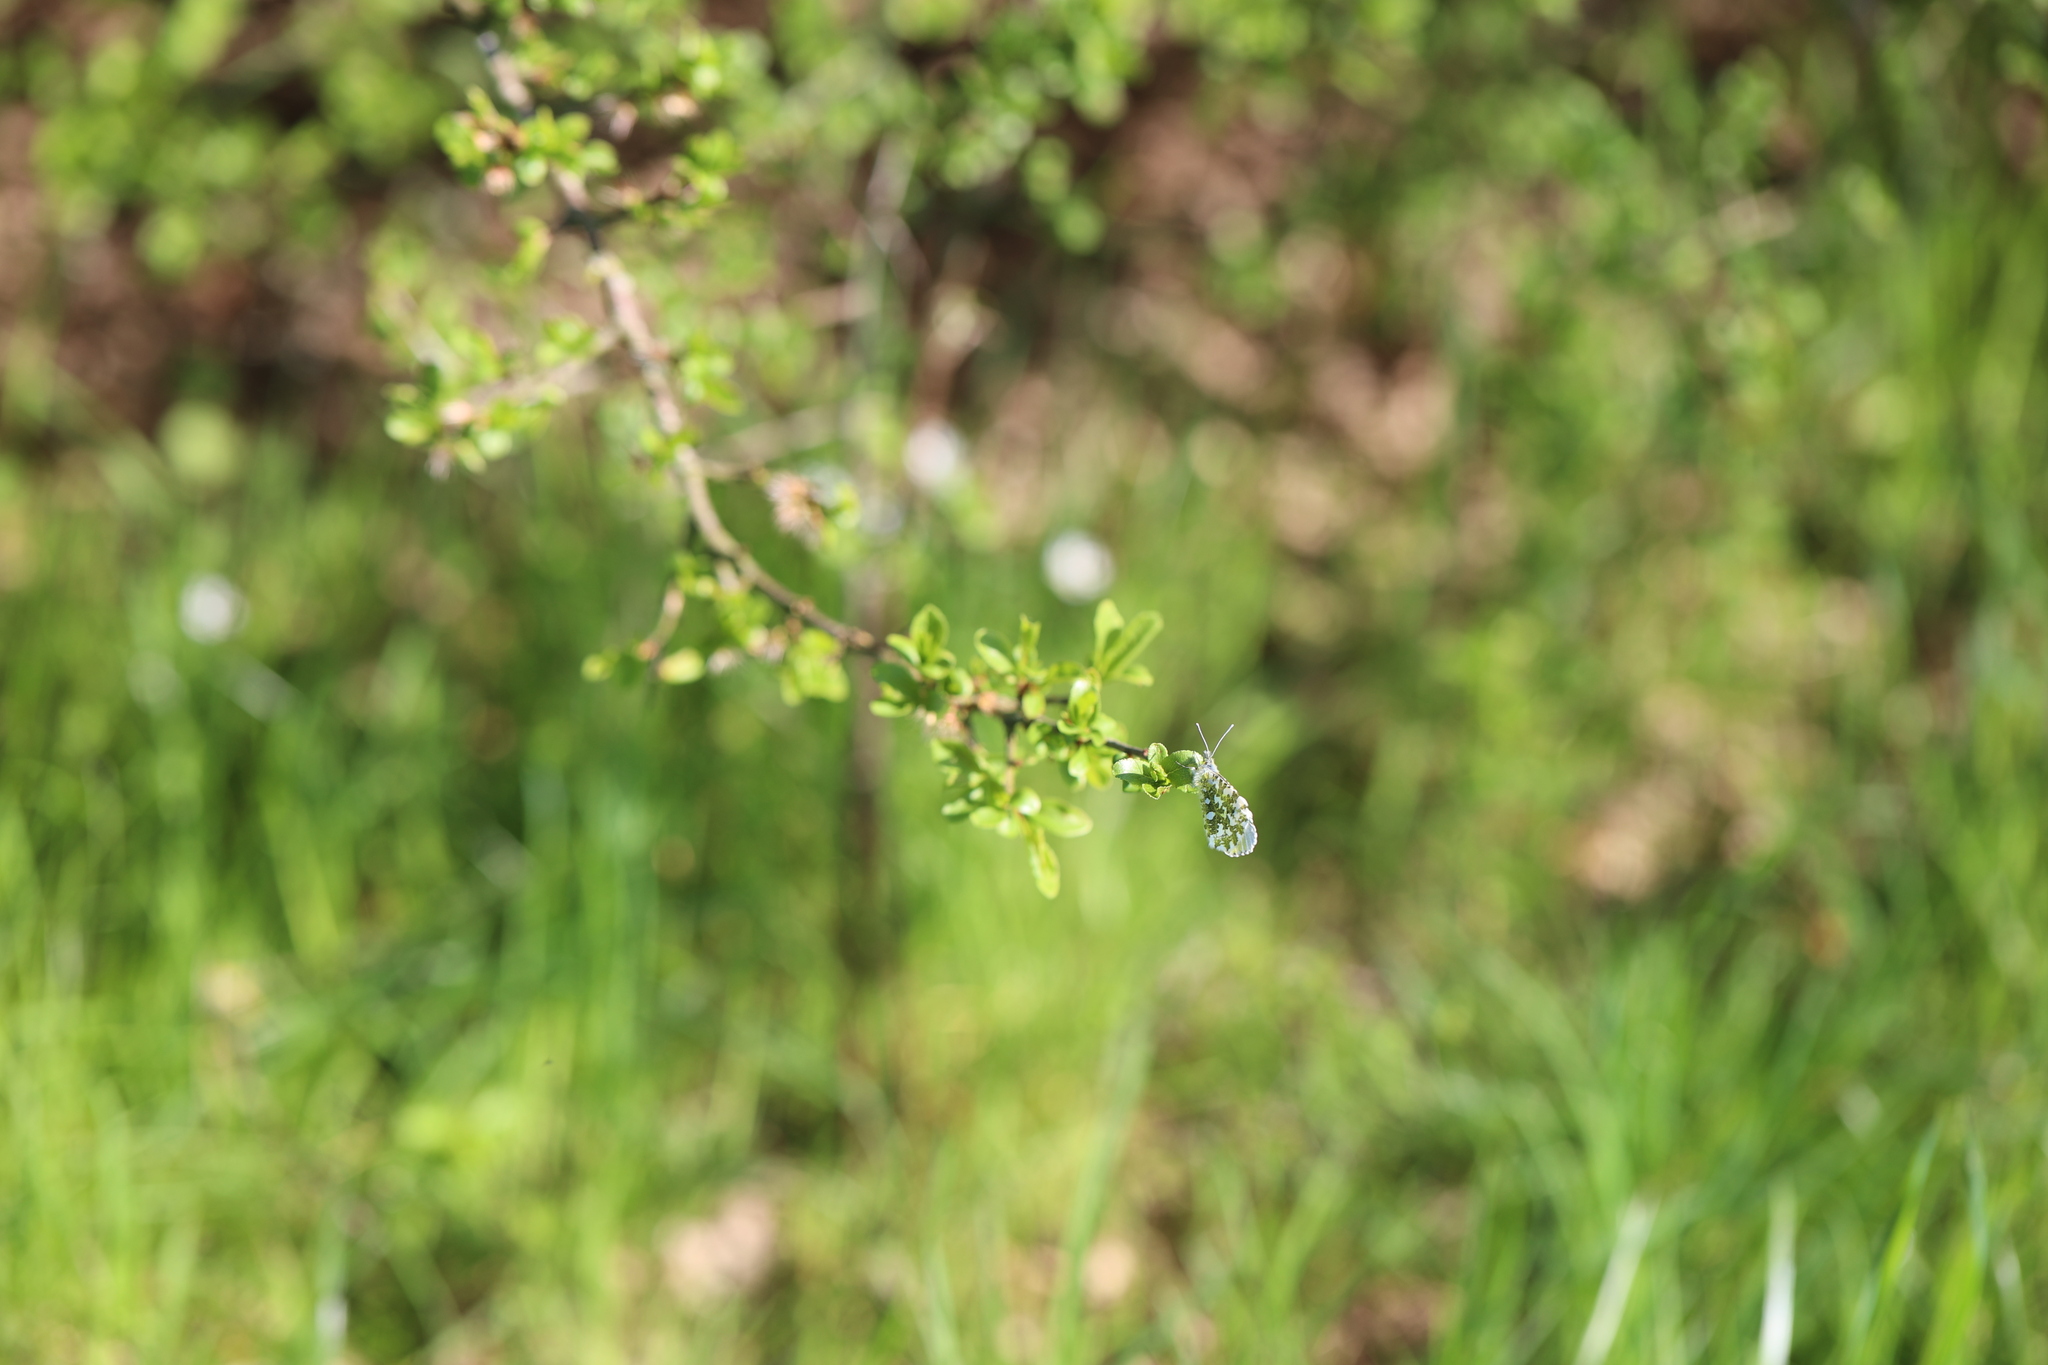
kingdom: Animalia
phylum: Arthropoda
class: Insecta
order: Lepidoptera
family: Pieridae
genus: Anthocharis
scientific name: Anthocharis cardamines
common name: Orange-tip
